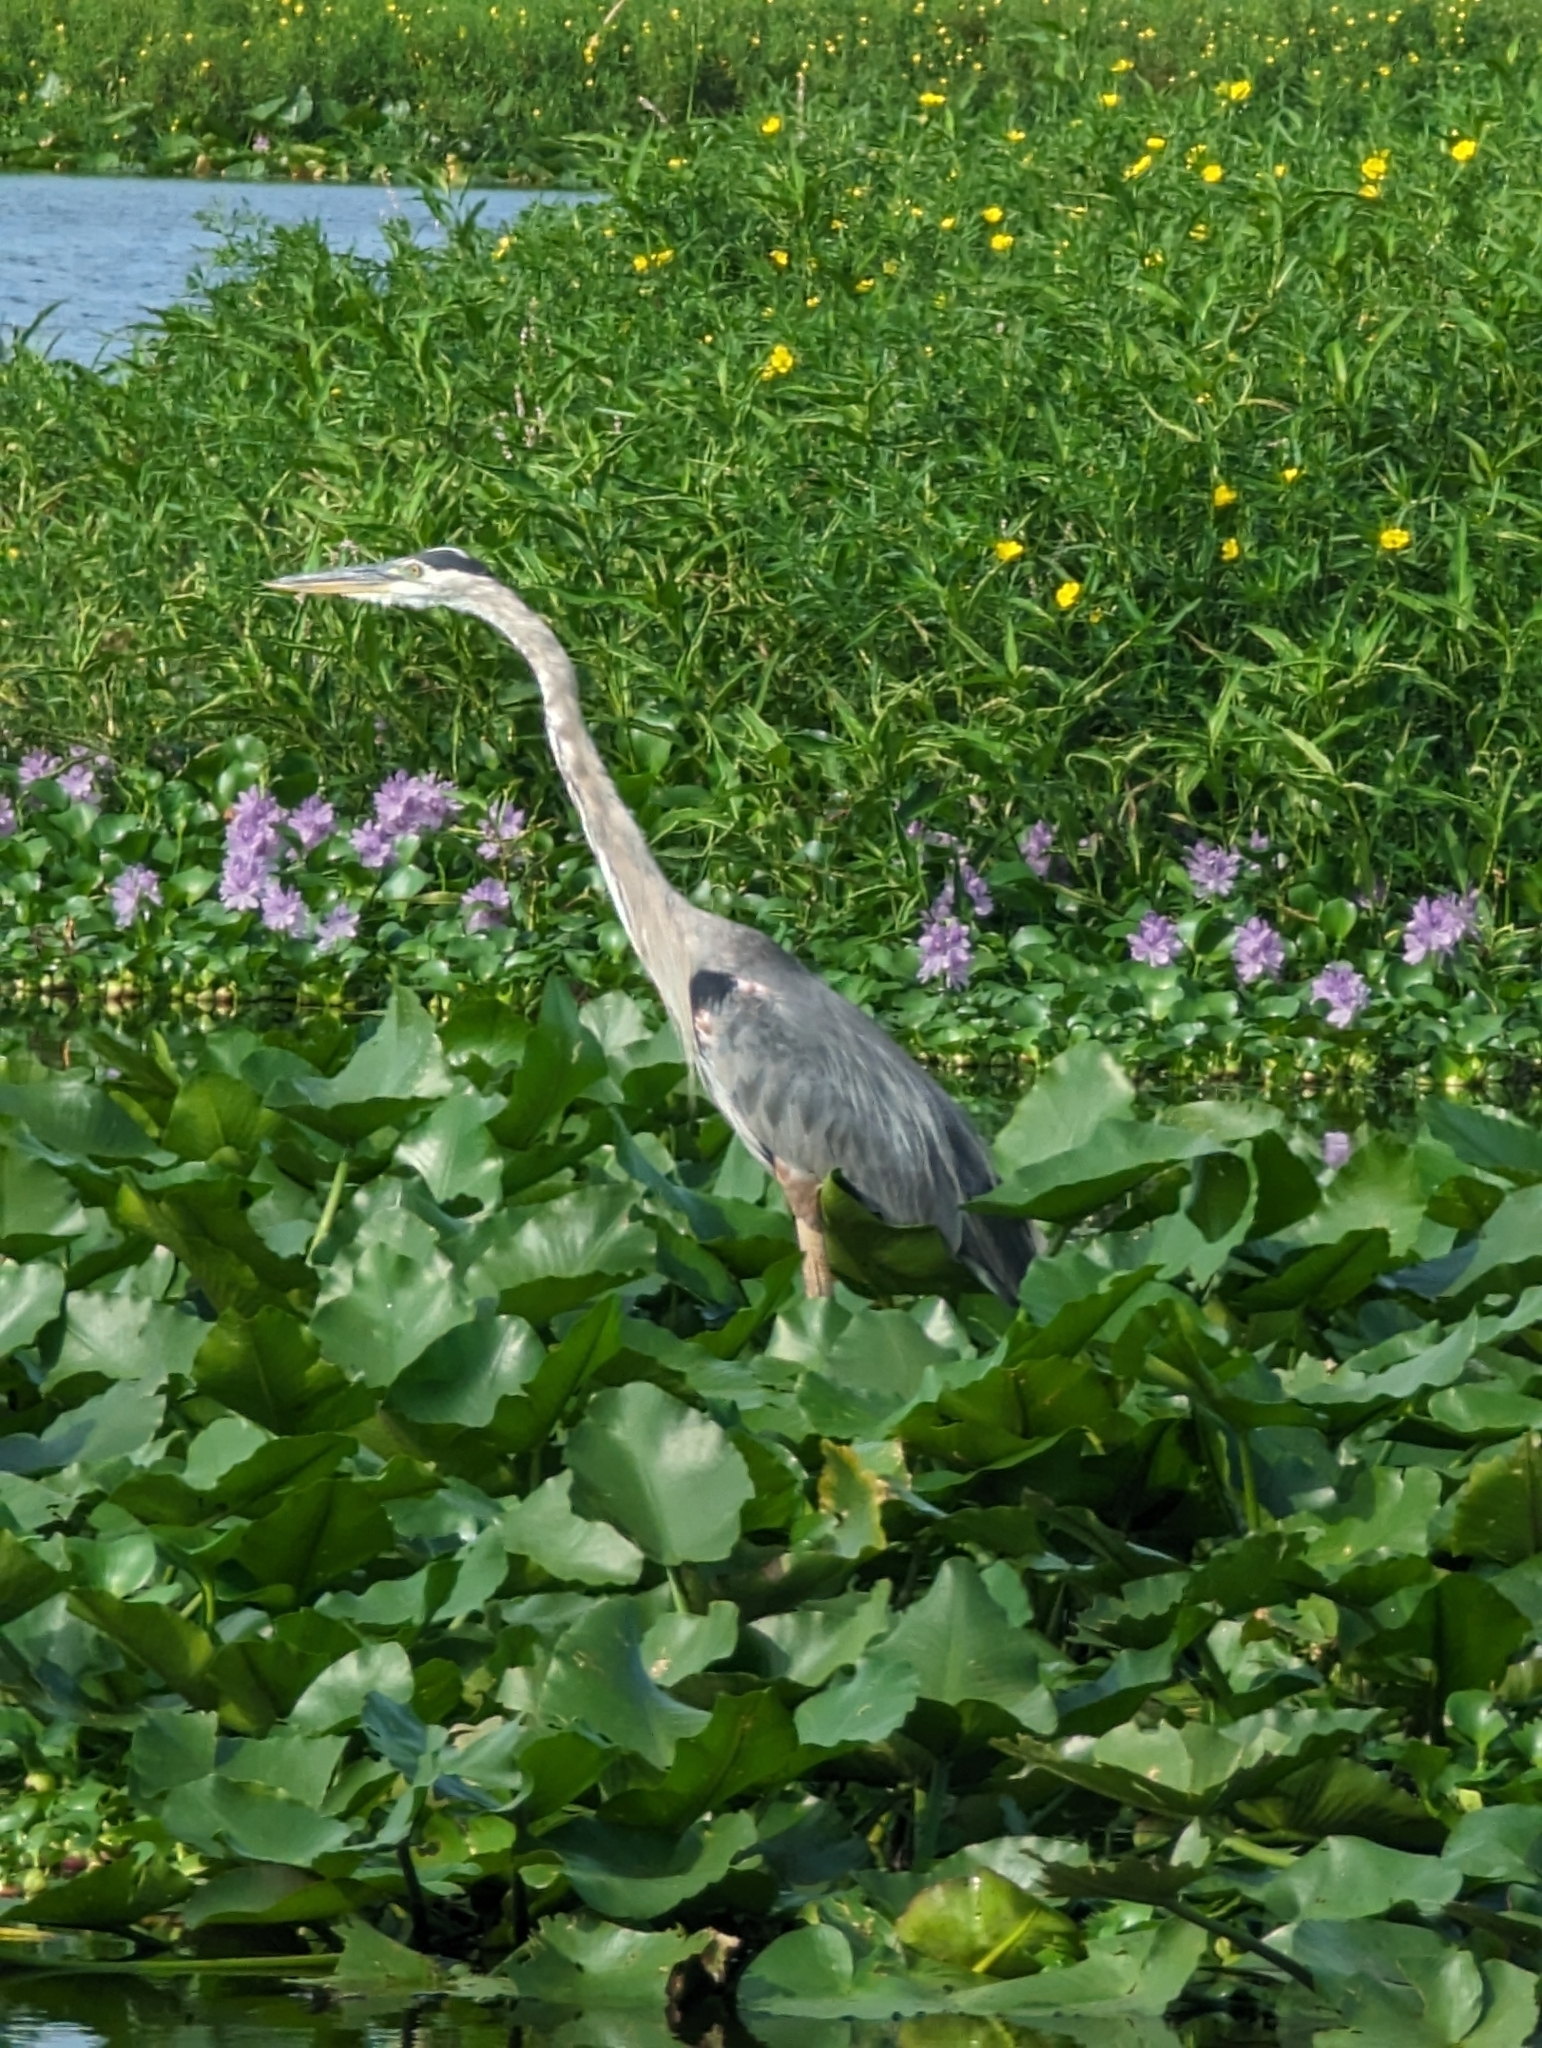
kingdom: Animalia
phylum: Chordata
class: Aves
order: Pelecaniformes
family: Ardeidae
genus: Ardea
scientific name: Ardea herodias
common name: Great blue heron
